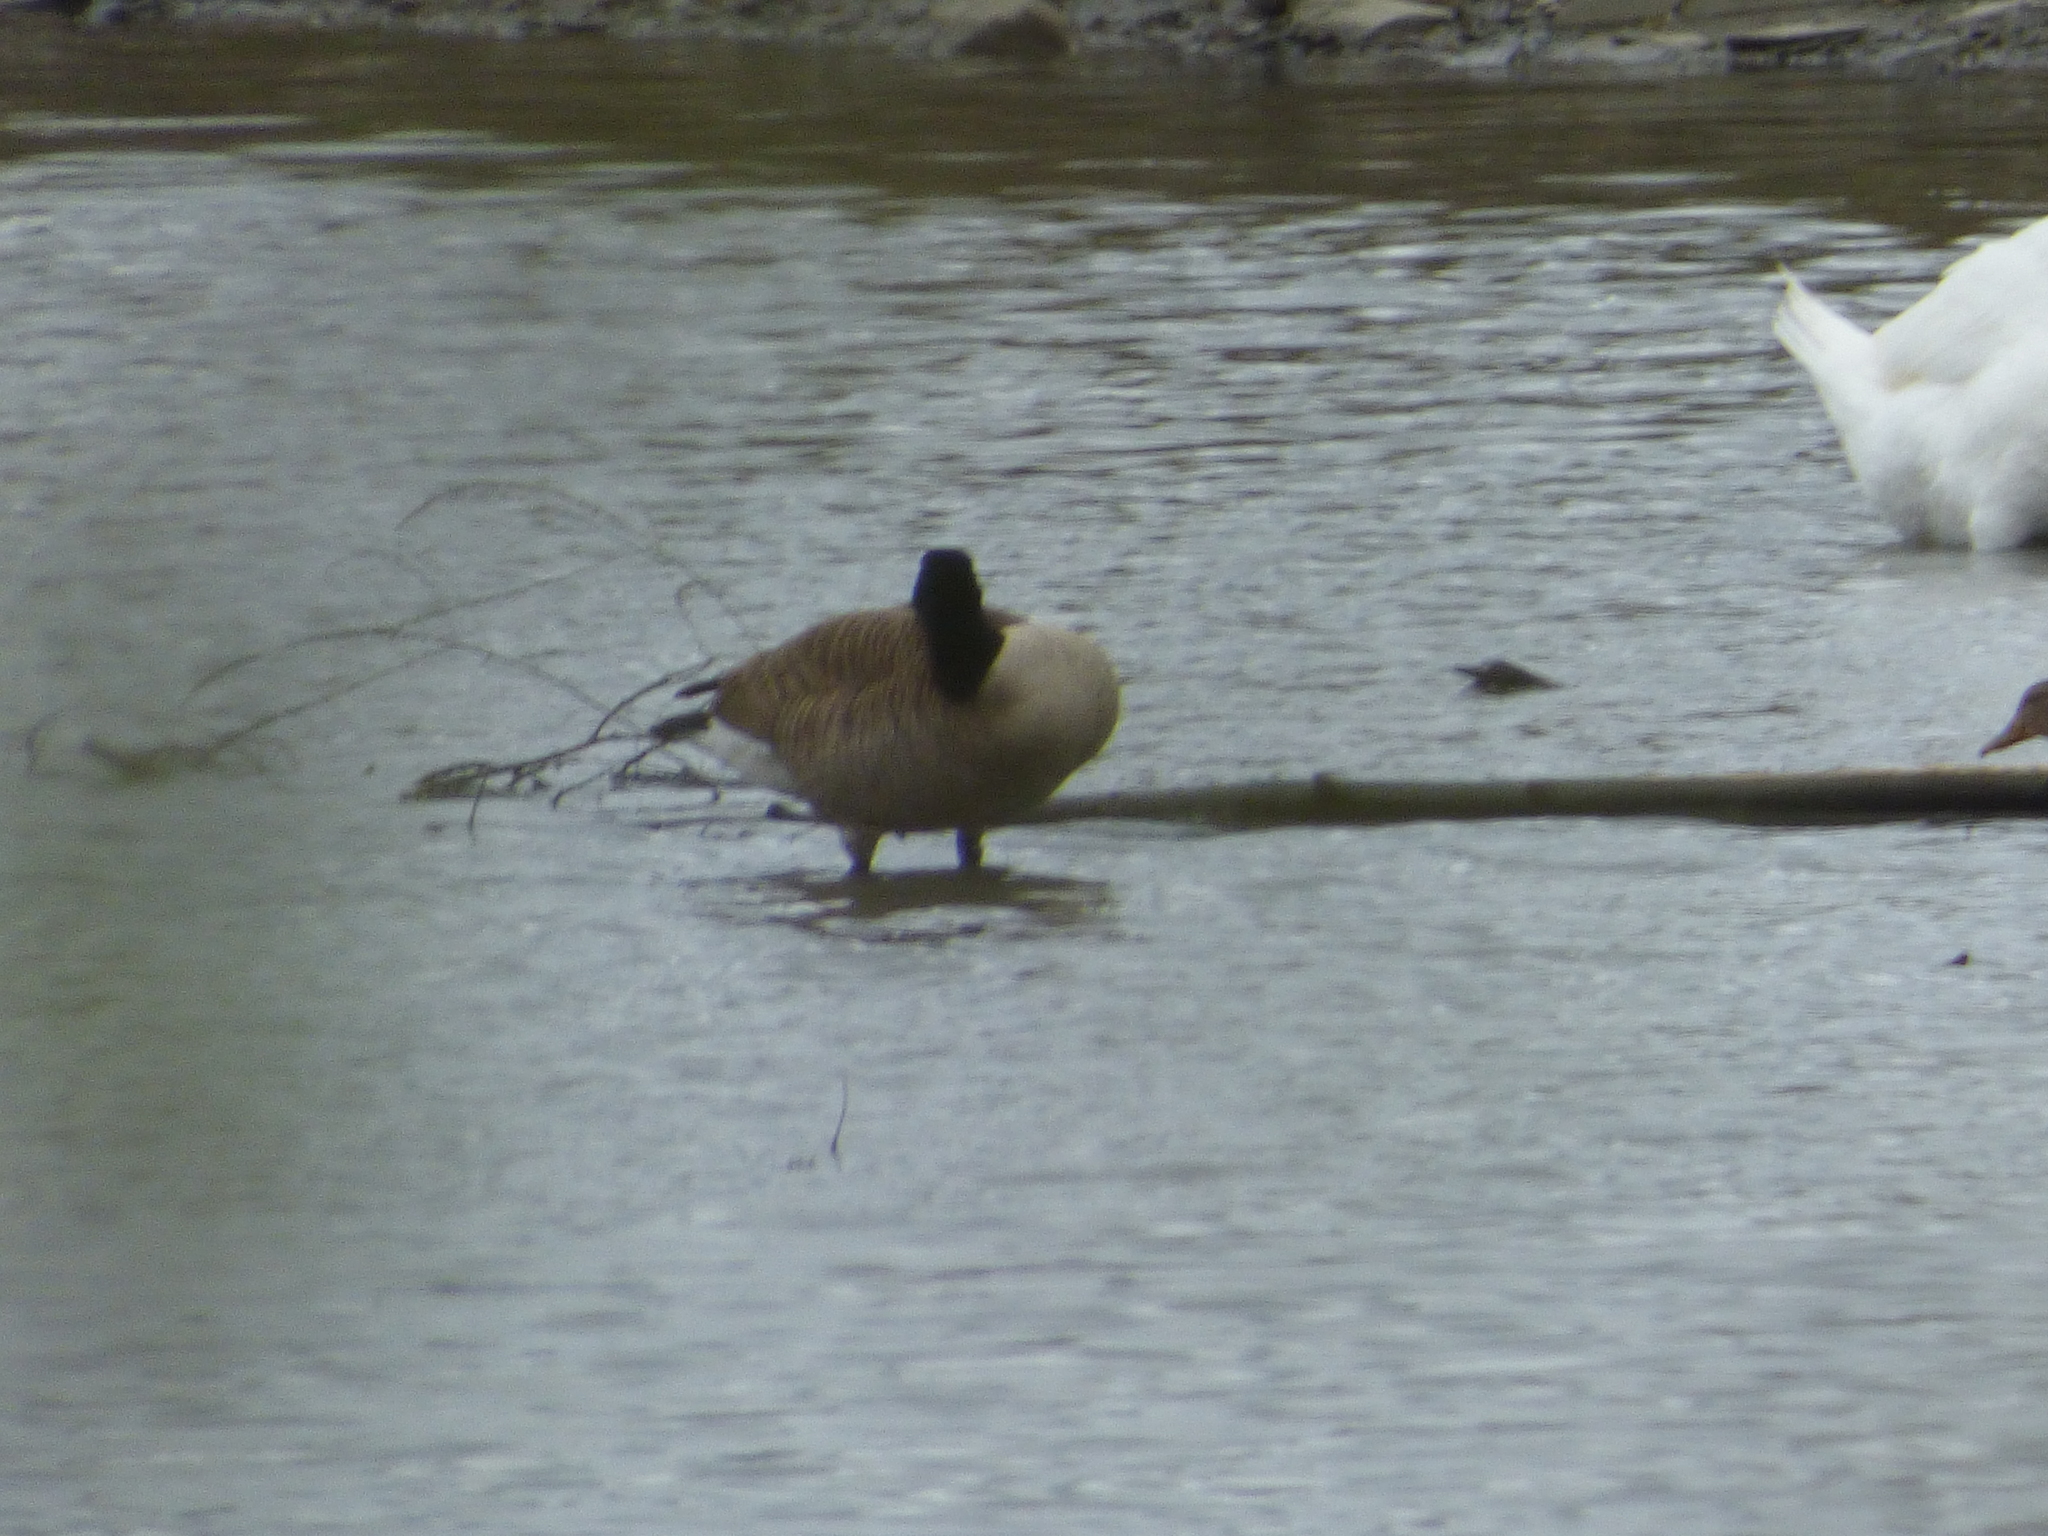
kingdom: Animalia
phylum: Chordata
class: Aves
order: Anseriformes
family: Anatidae
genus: Branta
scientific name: Branta canadensis
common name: Canada goose
